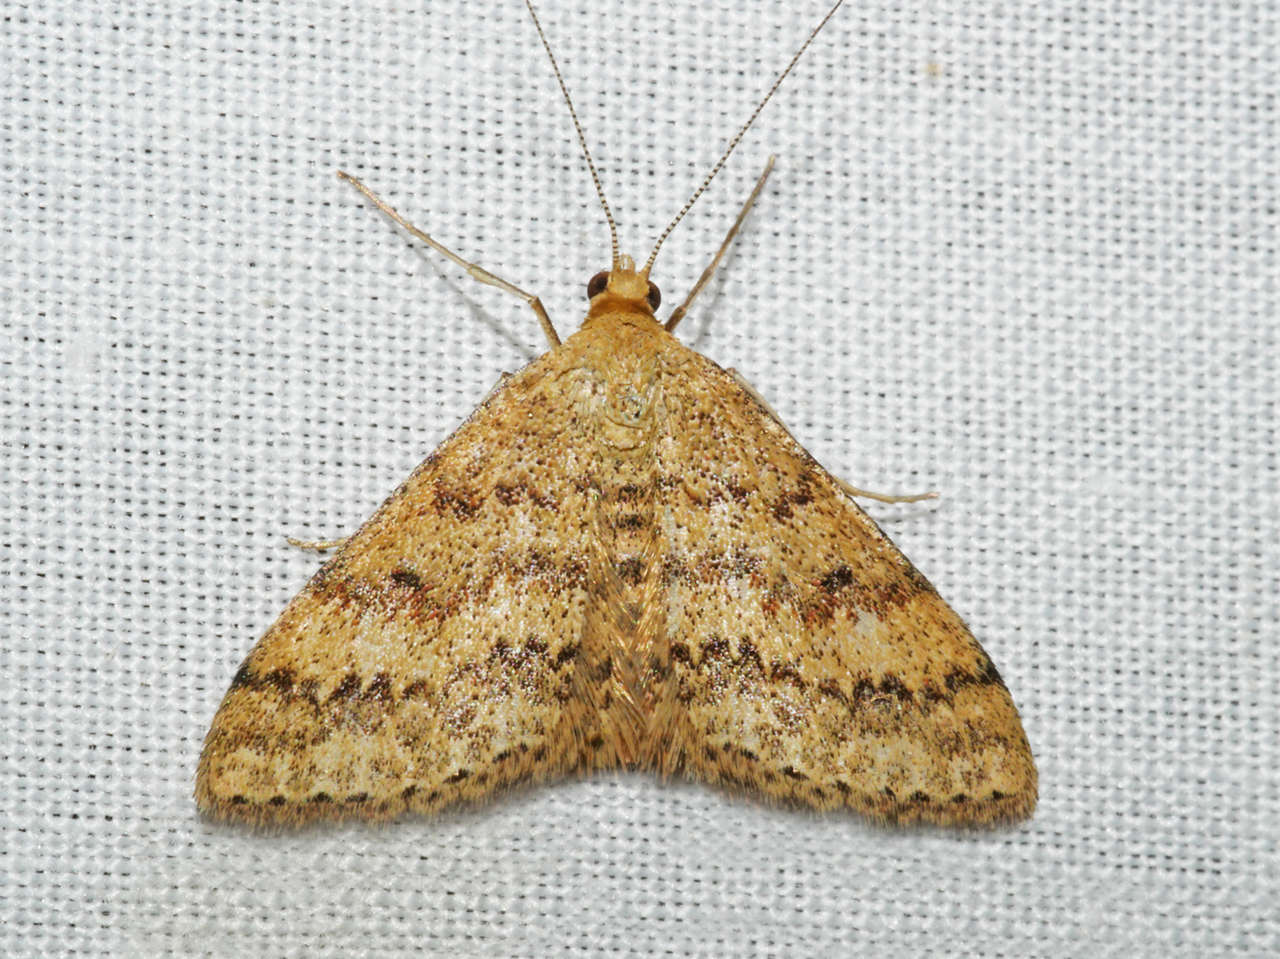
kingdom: Animalia
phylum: Arthropoda
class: Insecta
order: Lepidoptera
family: Geometridae
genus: Scopula
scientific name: Scopula rubraria
